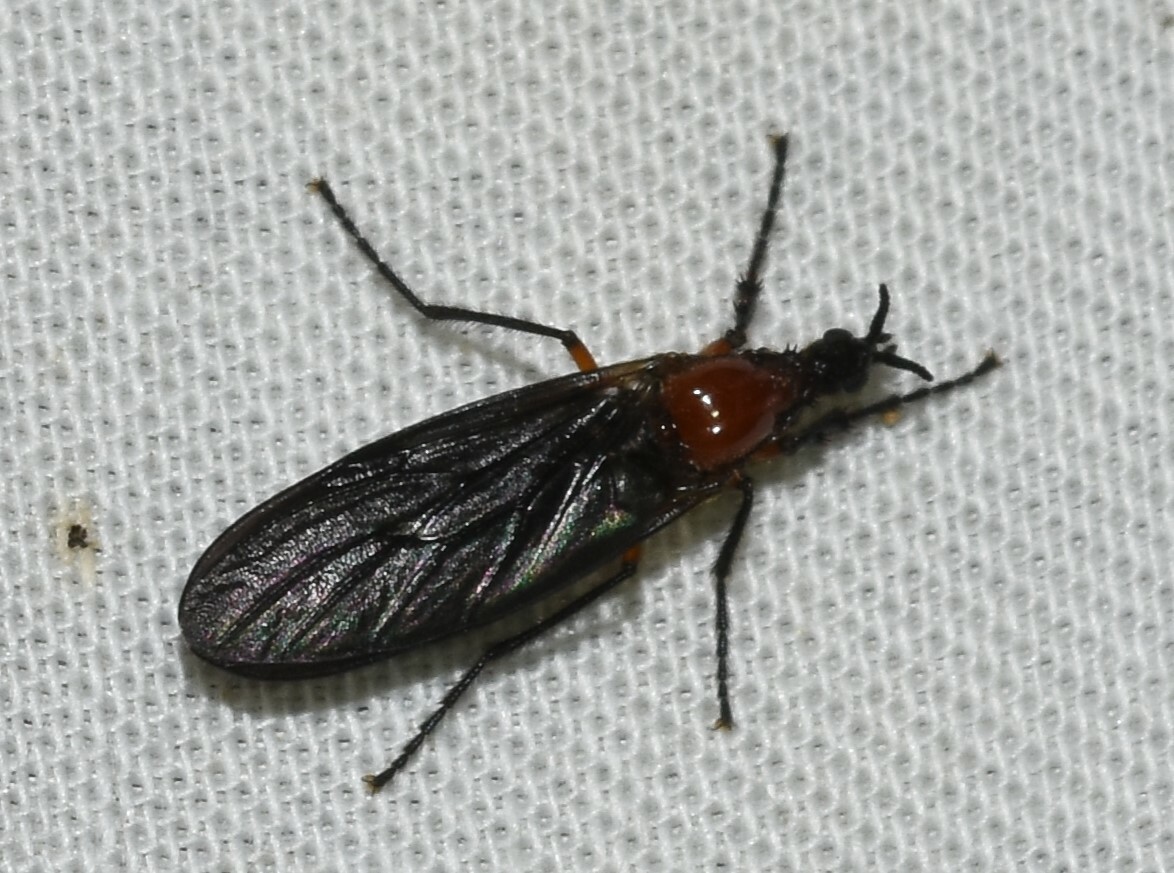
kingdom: Animalia
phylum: Arthropoda
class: Insecta
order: Diptera
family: Bibionidae
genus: Dilophus
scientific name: Dilophus serotinus
